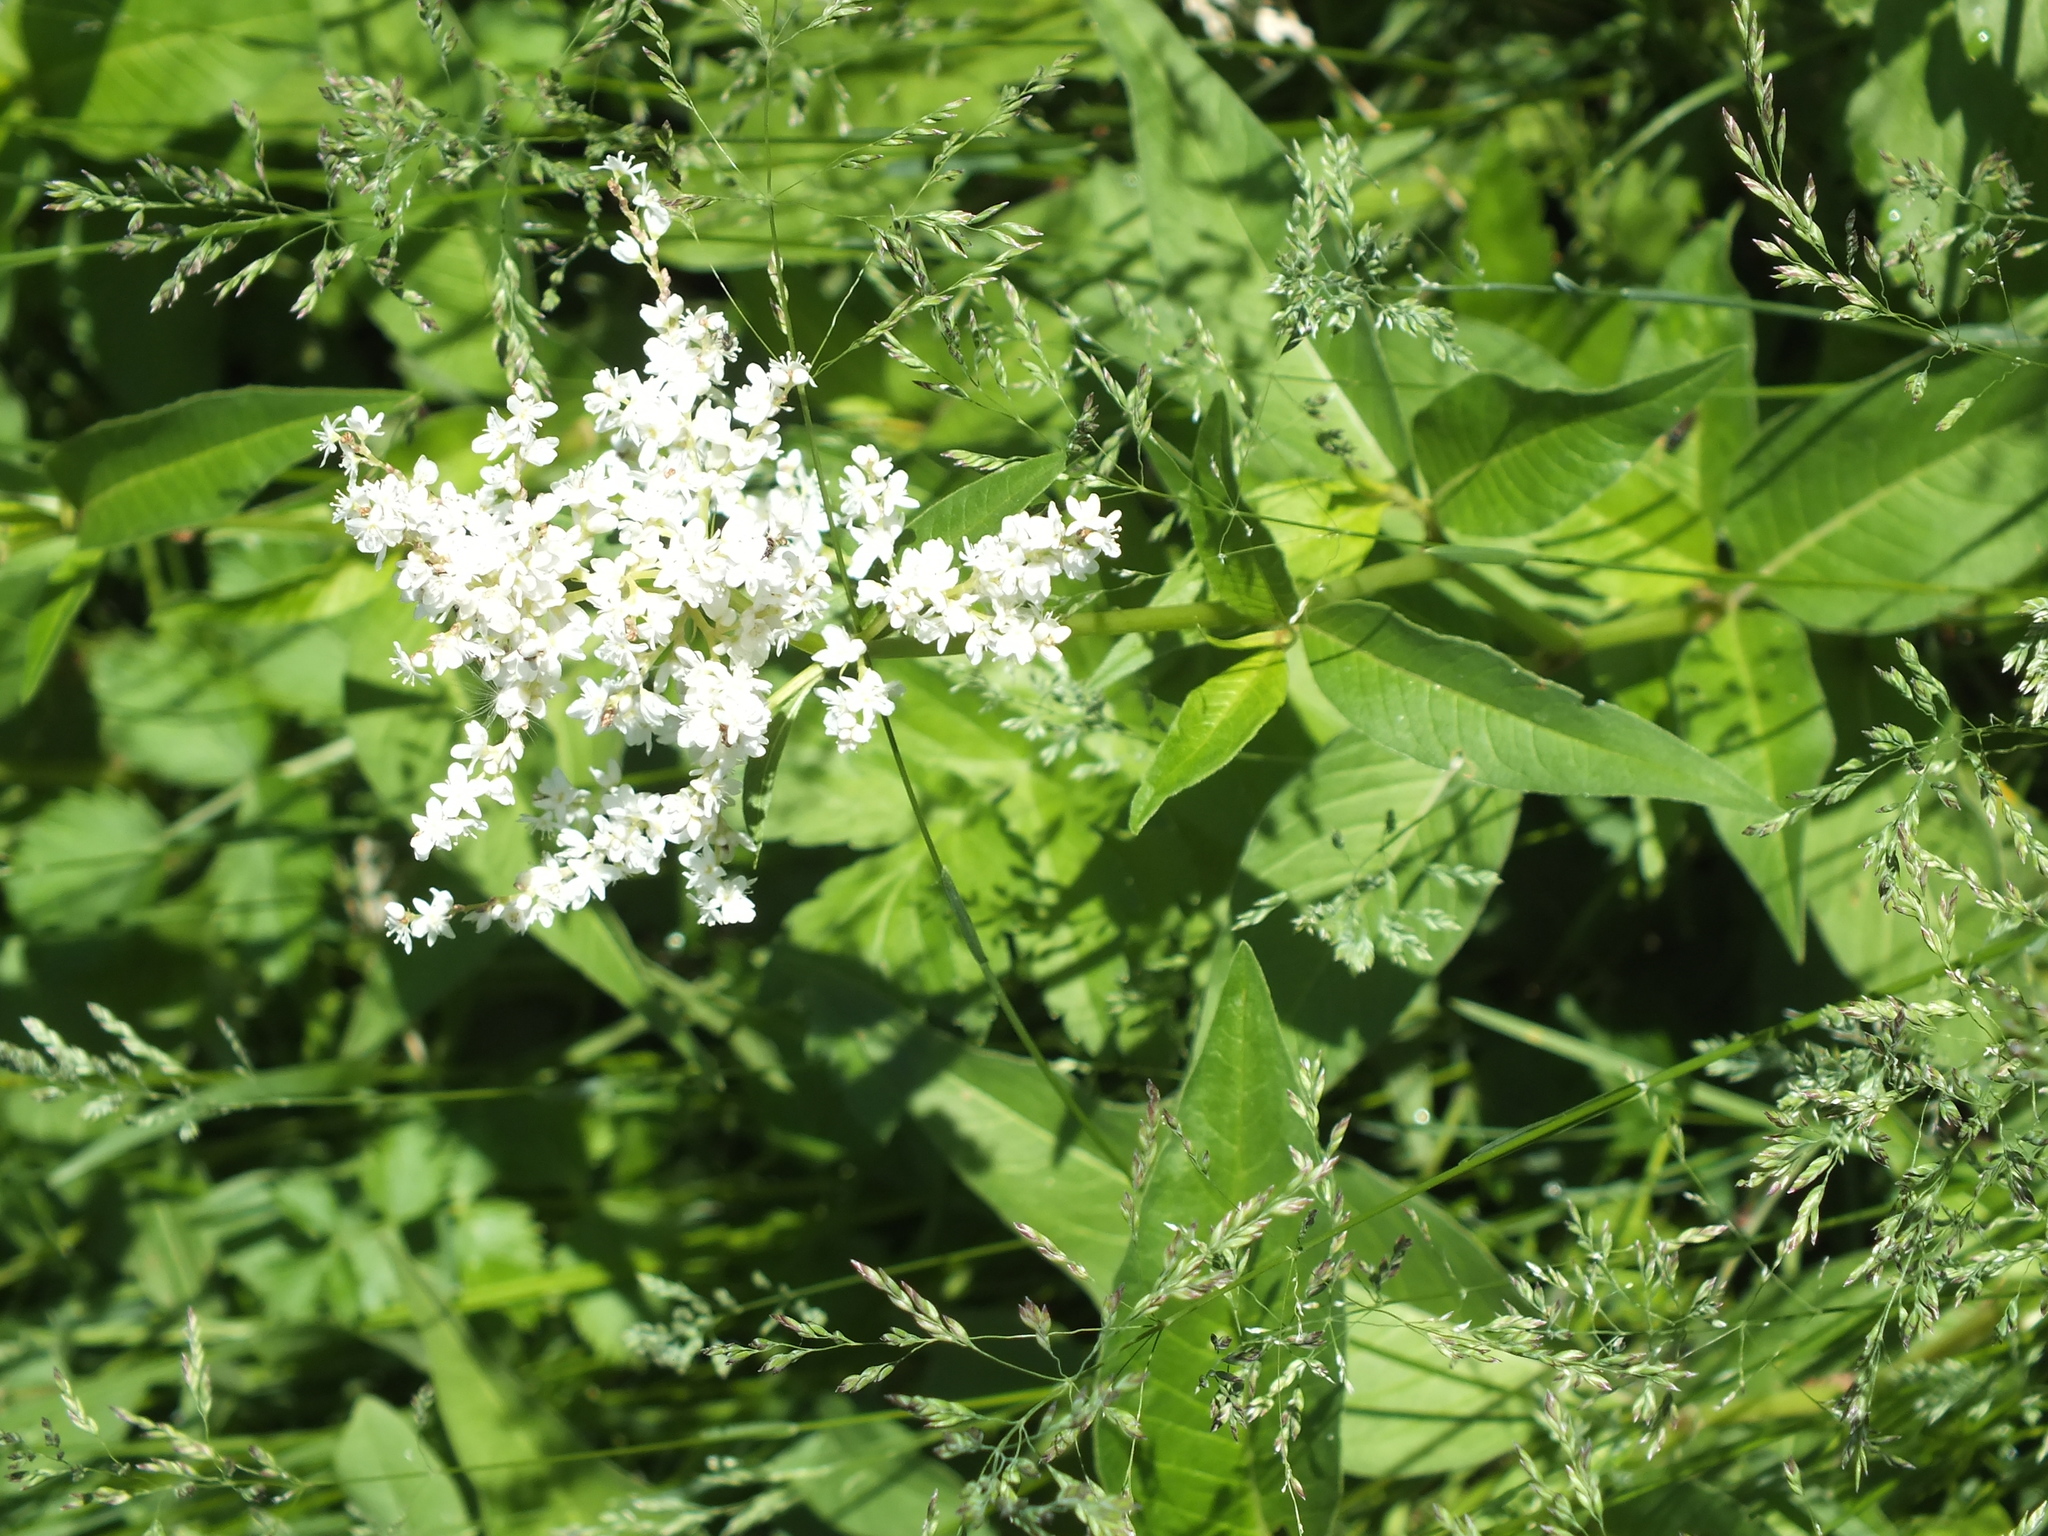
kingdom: Plantae
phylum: Tracheophyta
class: Magnoliopsida
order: Caryophyllales
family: Polygonaceae
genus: Koenigia
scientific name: Koenigia alpina
